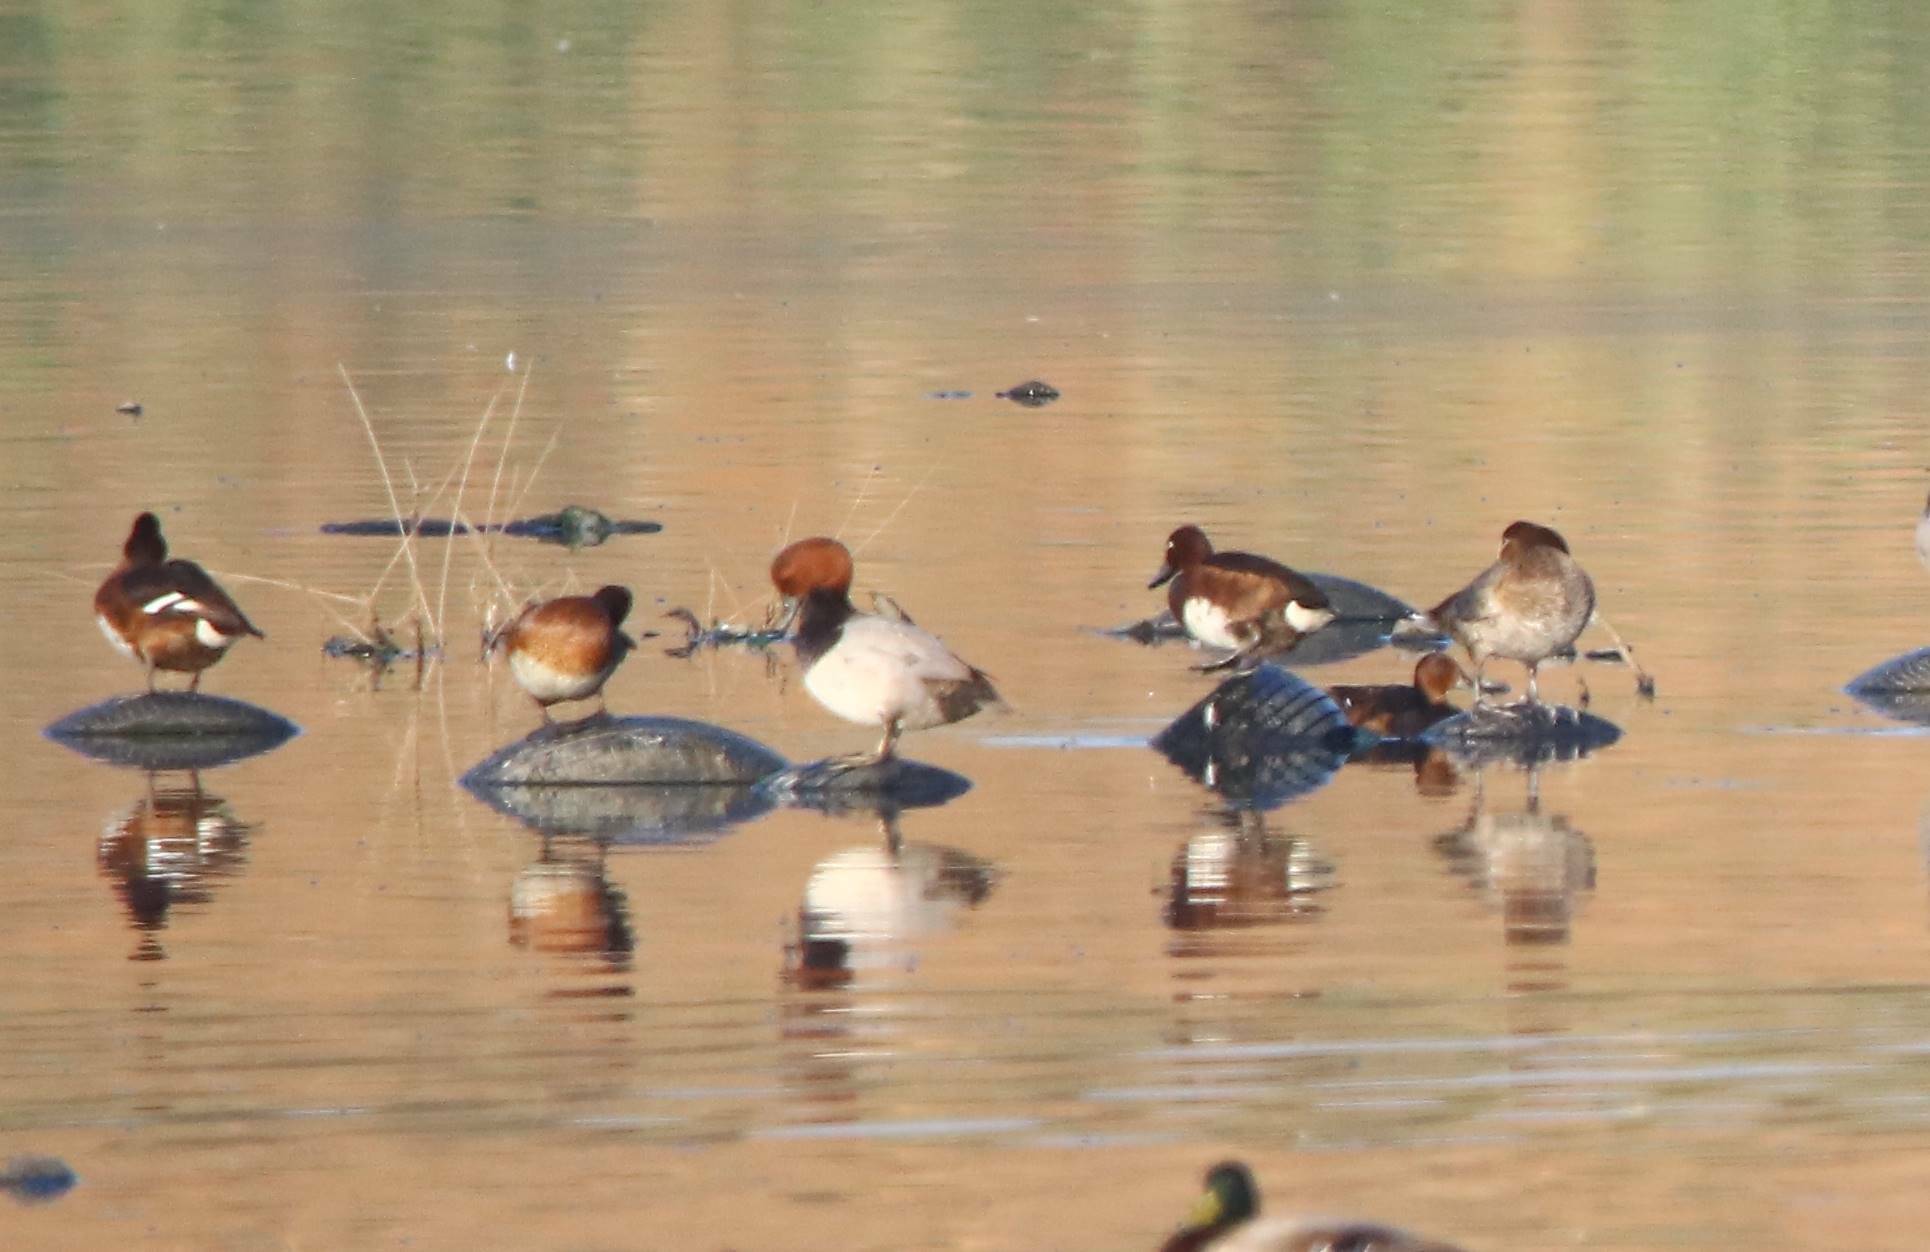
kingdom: Animalia
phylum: Chordata
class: Aves
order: Anseriformes
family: Anatidae
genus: Aythya
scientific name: Aythya nyroca
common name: Ferruginous duck
